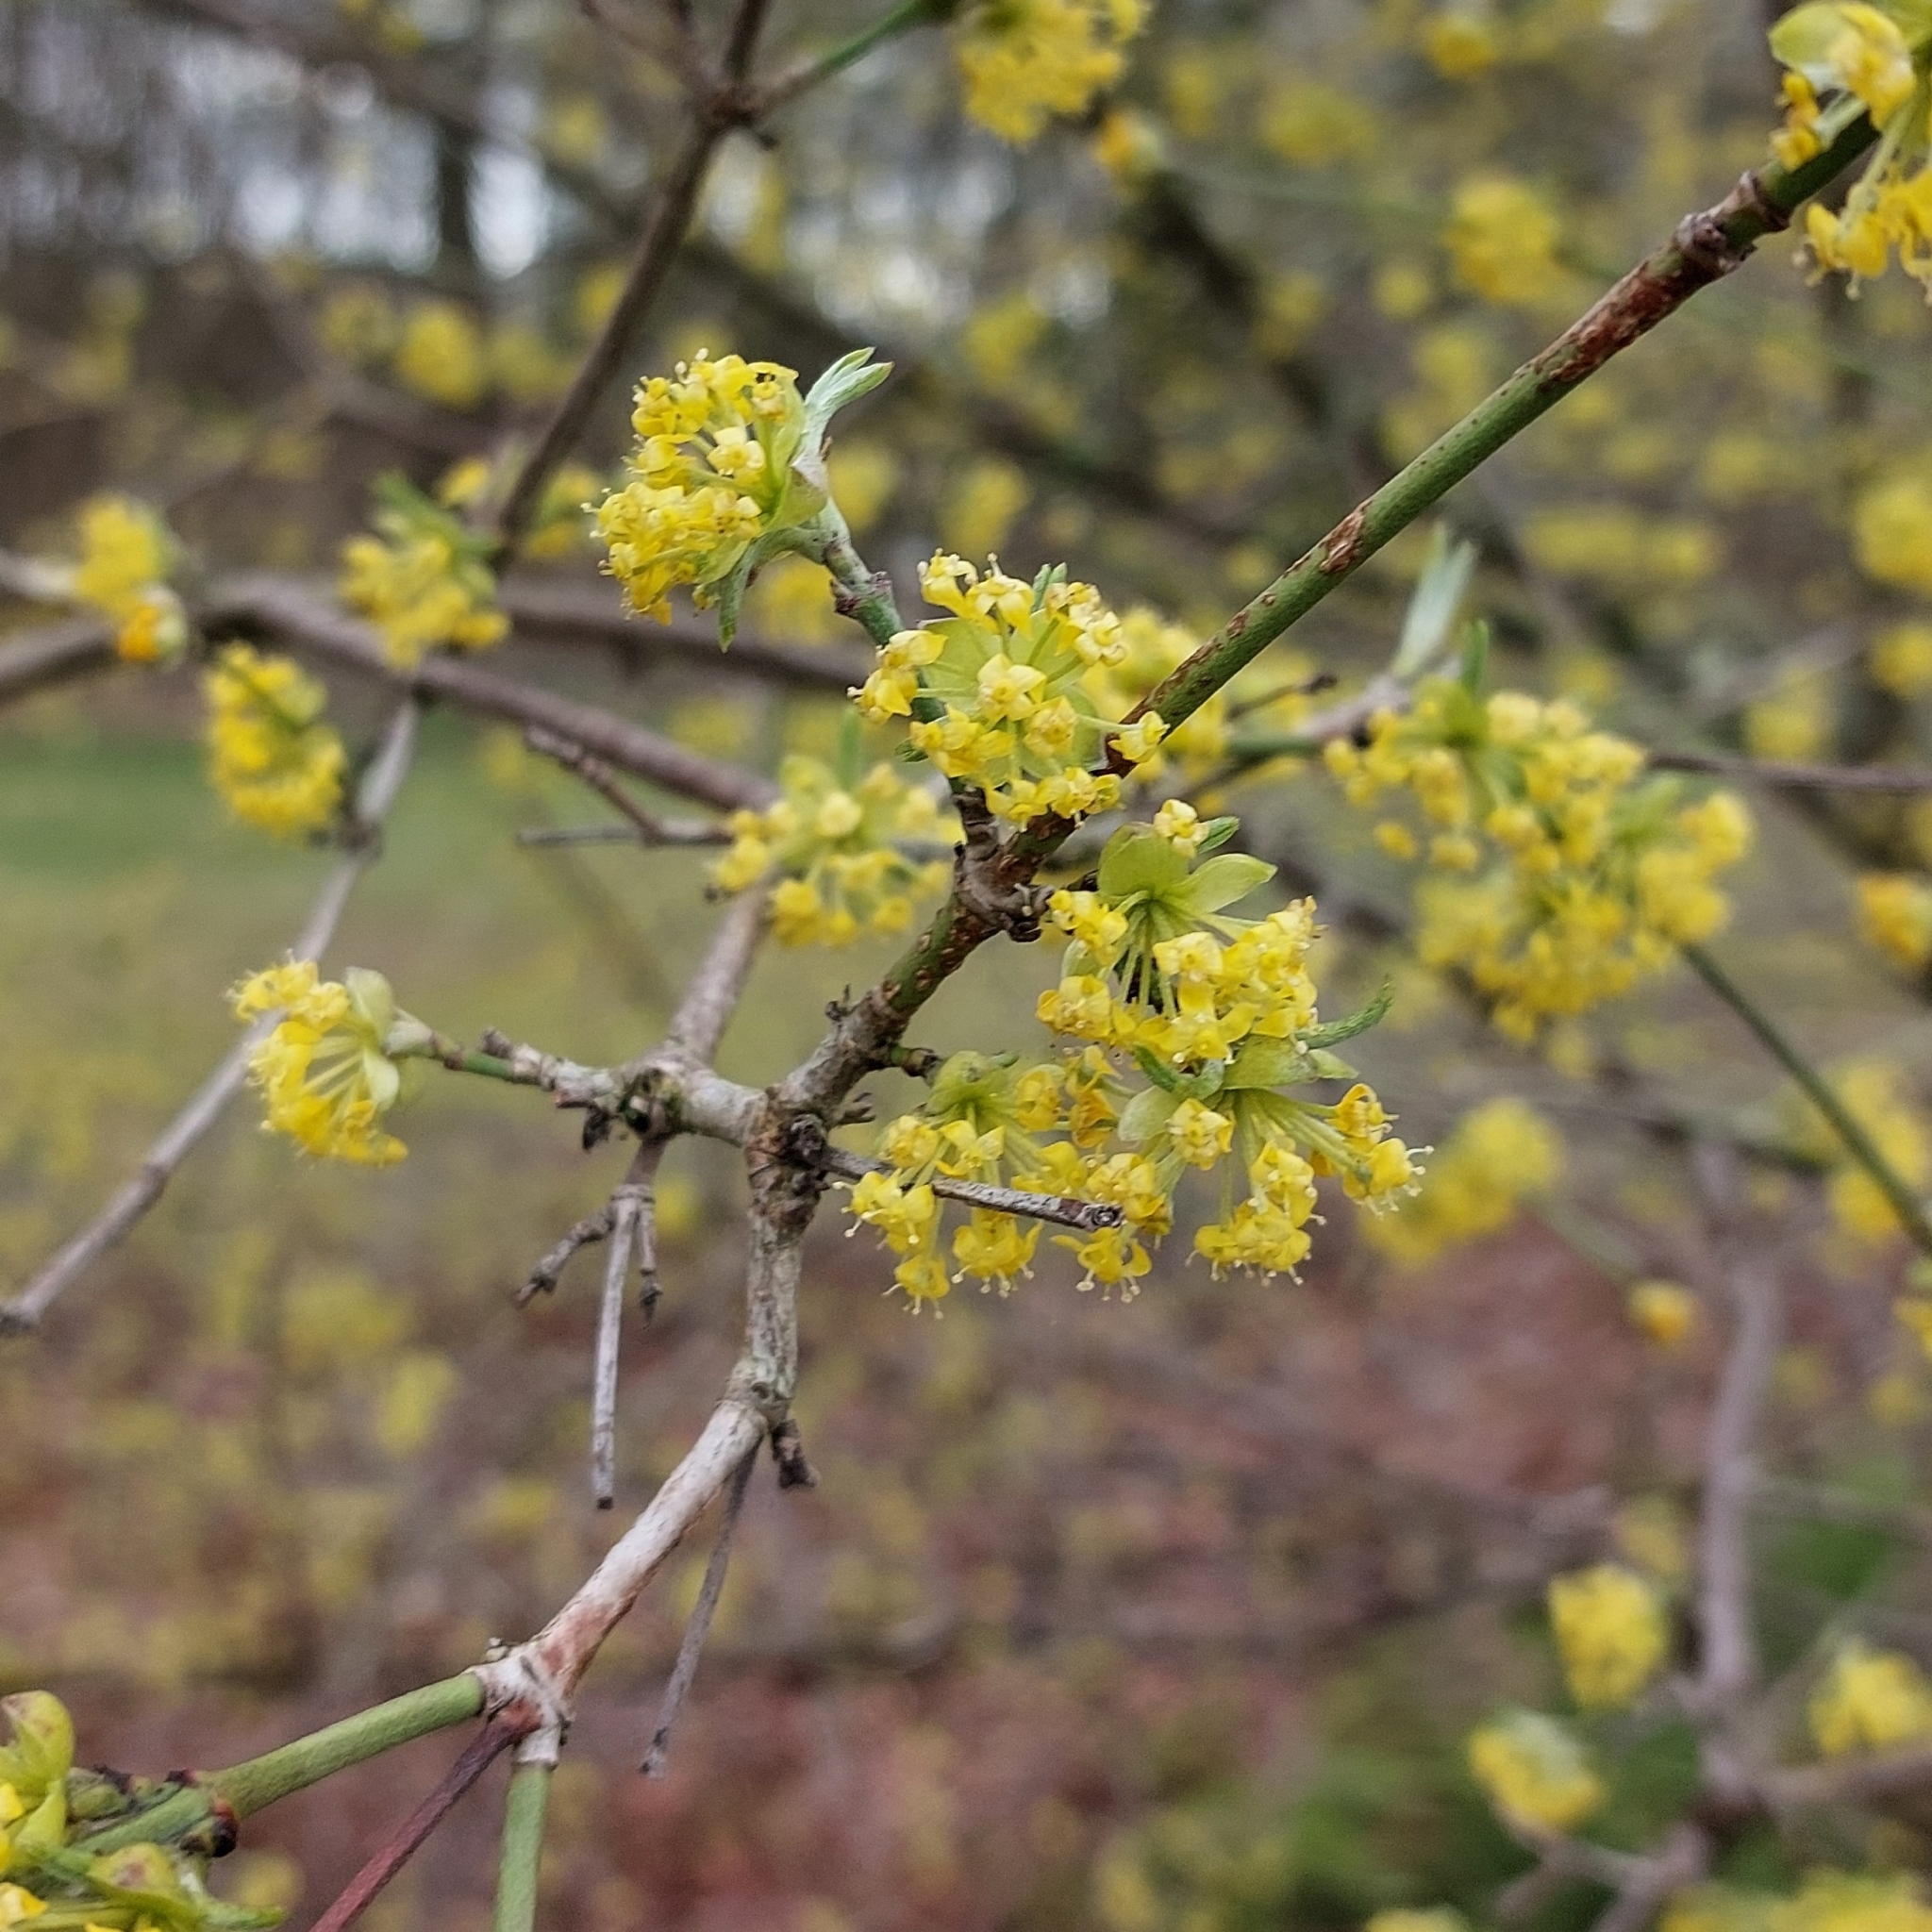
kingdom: Plantae
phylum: Tracheophyta
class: Magnoliopsida
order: Cornales
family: Cornaceae
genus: Cornus
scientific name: Cornus mas
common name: Cornelian-cherry
